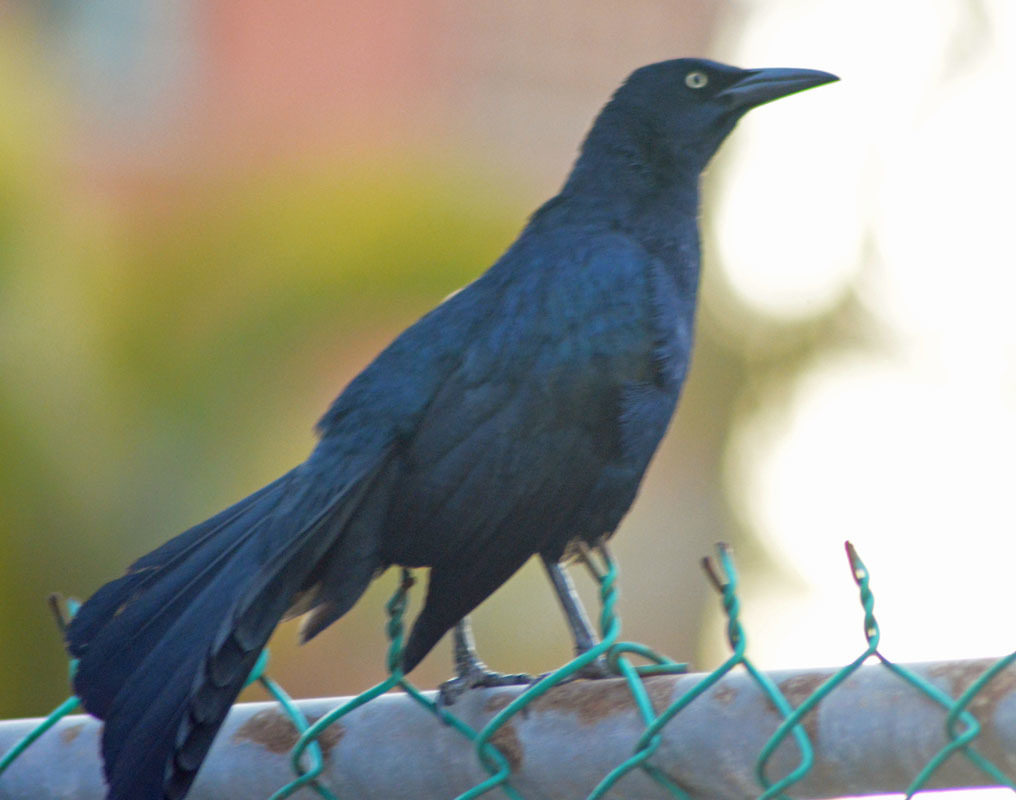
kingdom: Animalia
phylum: Chordata
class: Aves
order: Passeriformes
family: Icteridae
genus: Quiscalus
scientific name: Quiscalus mexicanus
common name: Great-tailed grackle
